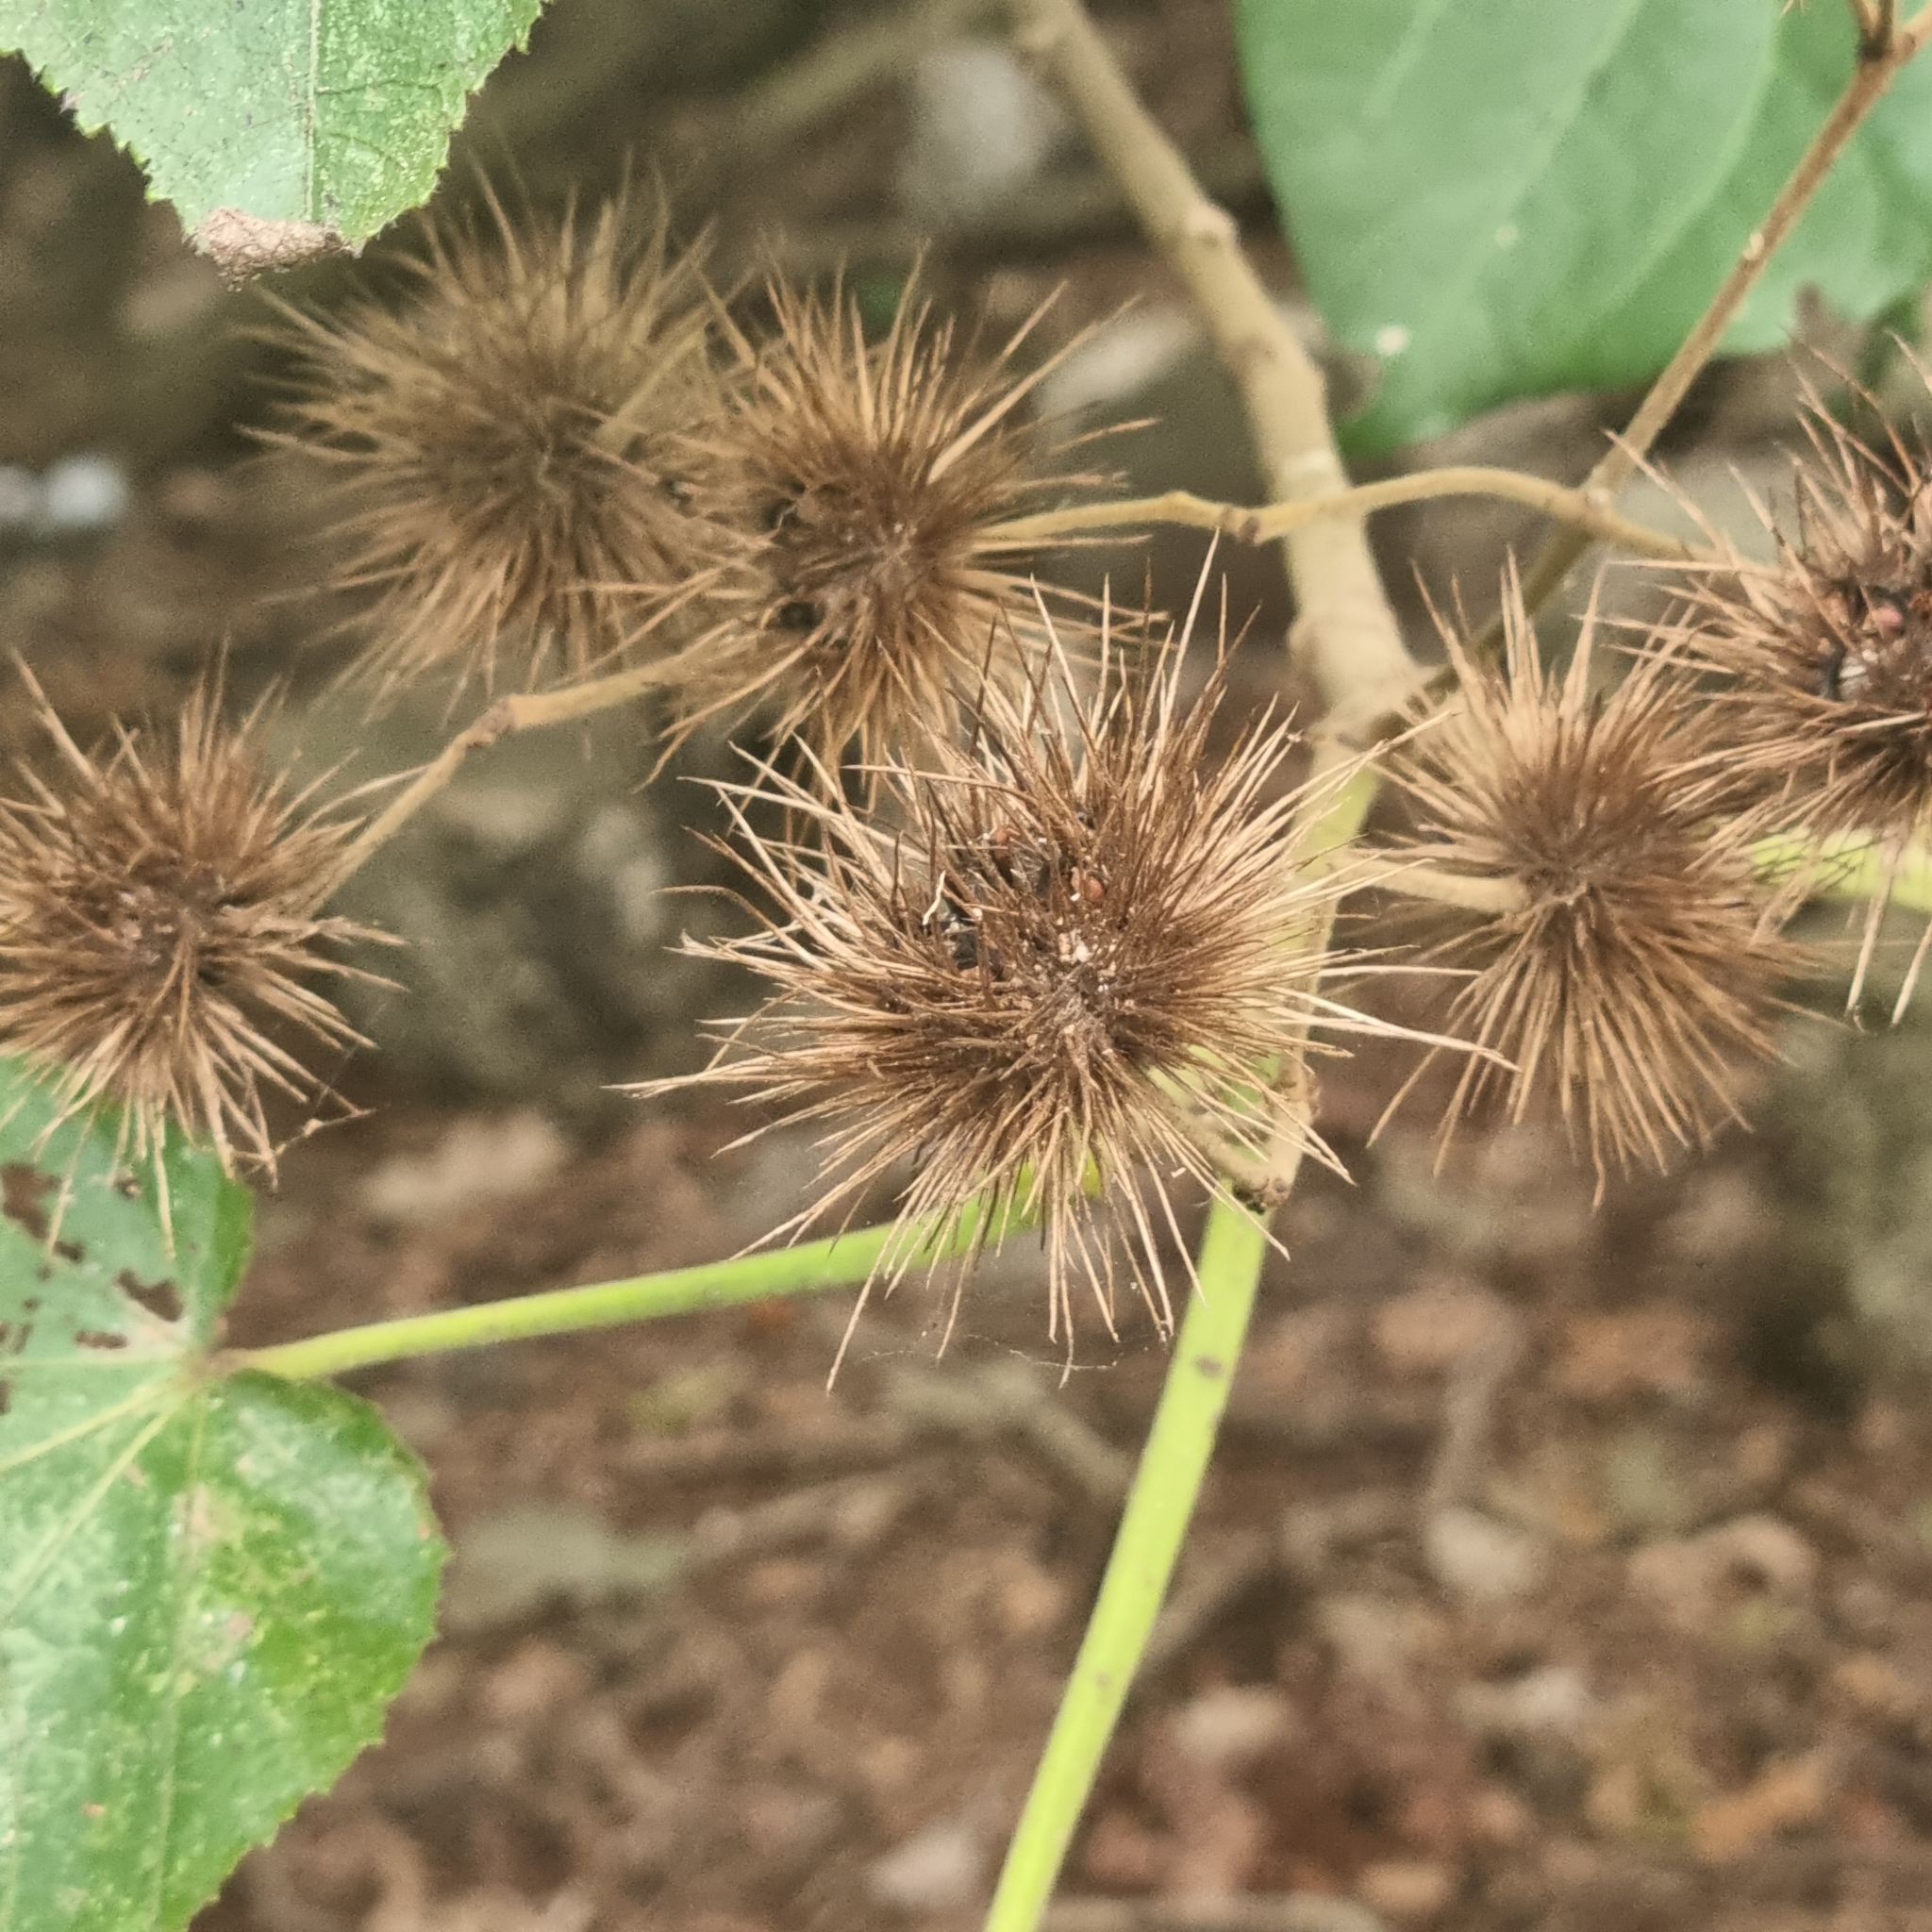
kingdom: Plantae
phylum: Tracheophyta
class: Magnoliopsida
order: Malvales
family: Malvaceae
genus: Entelea
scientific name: Entelea arborescens
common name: New zealand-mulberry
